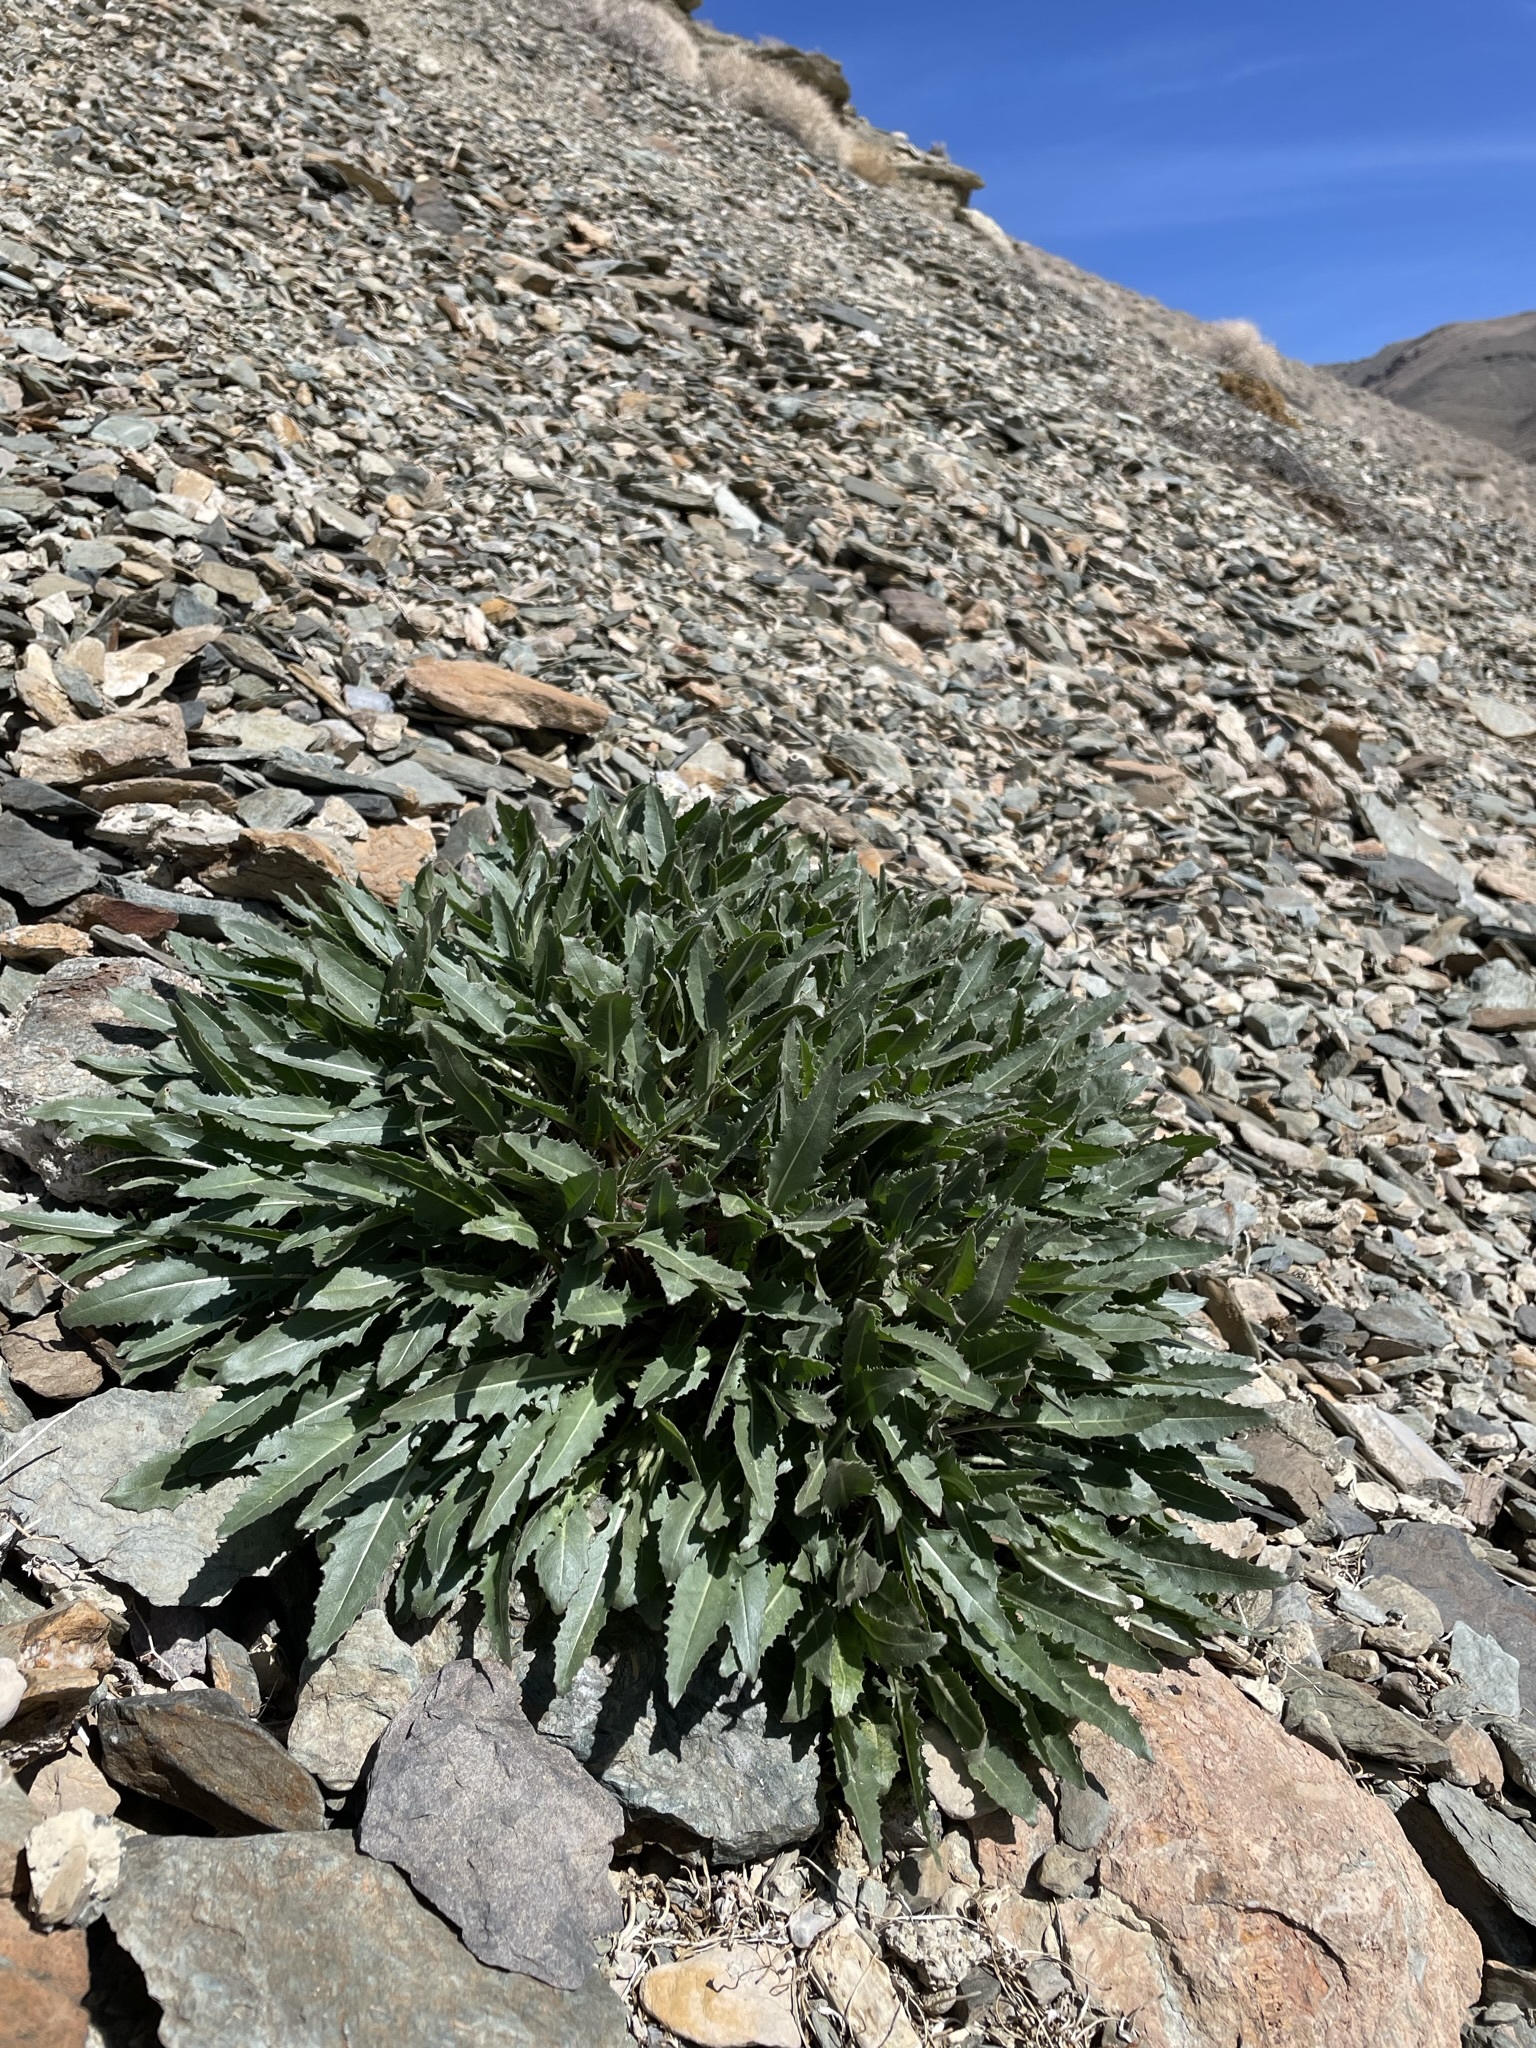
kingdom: Plantae
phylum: Tracheophyta
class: Magnoliopsida
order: Myrtales
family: Onagraceae
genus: Oenothera
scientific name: Oenothera cespitosa
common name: Tufted evening-primrose
